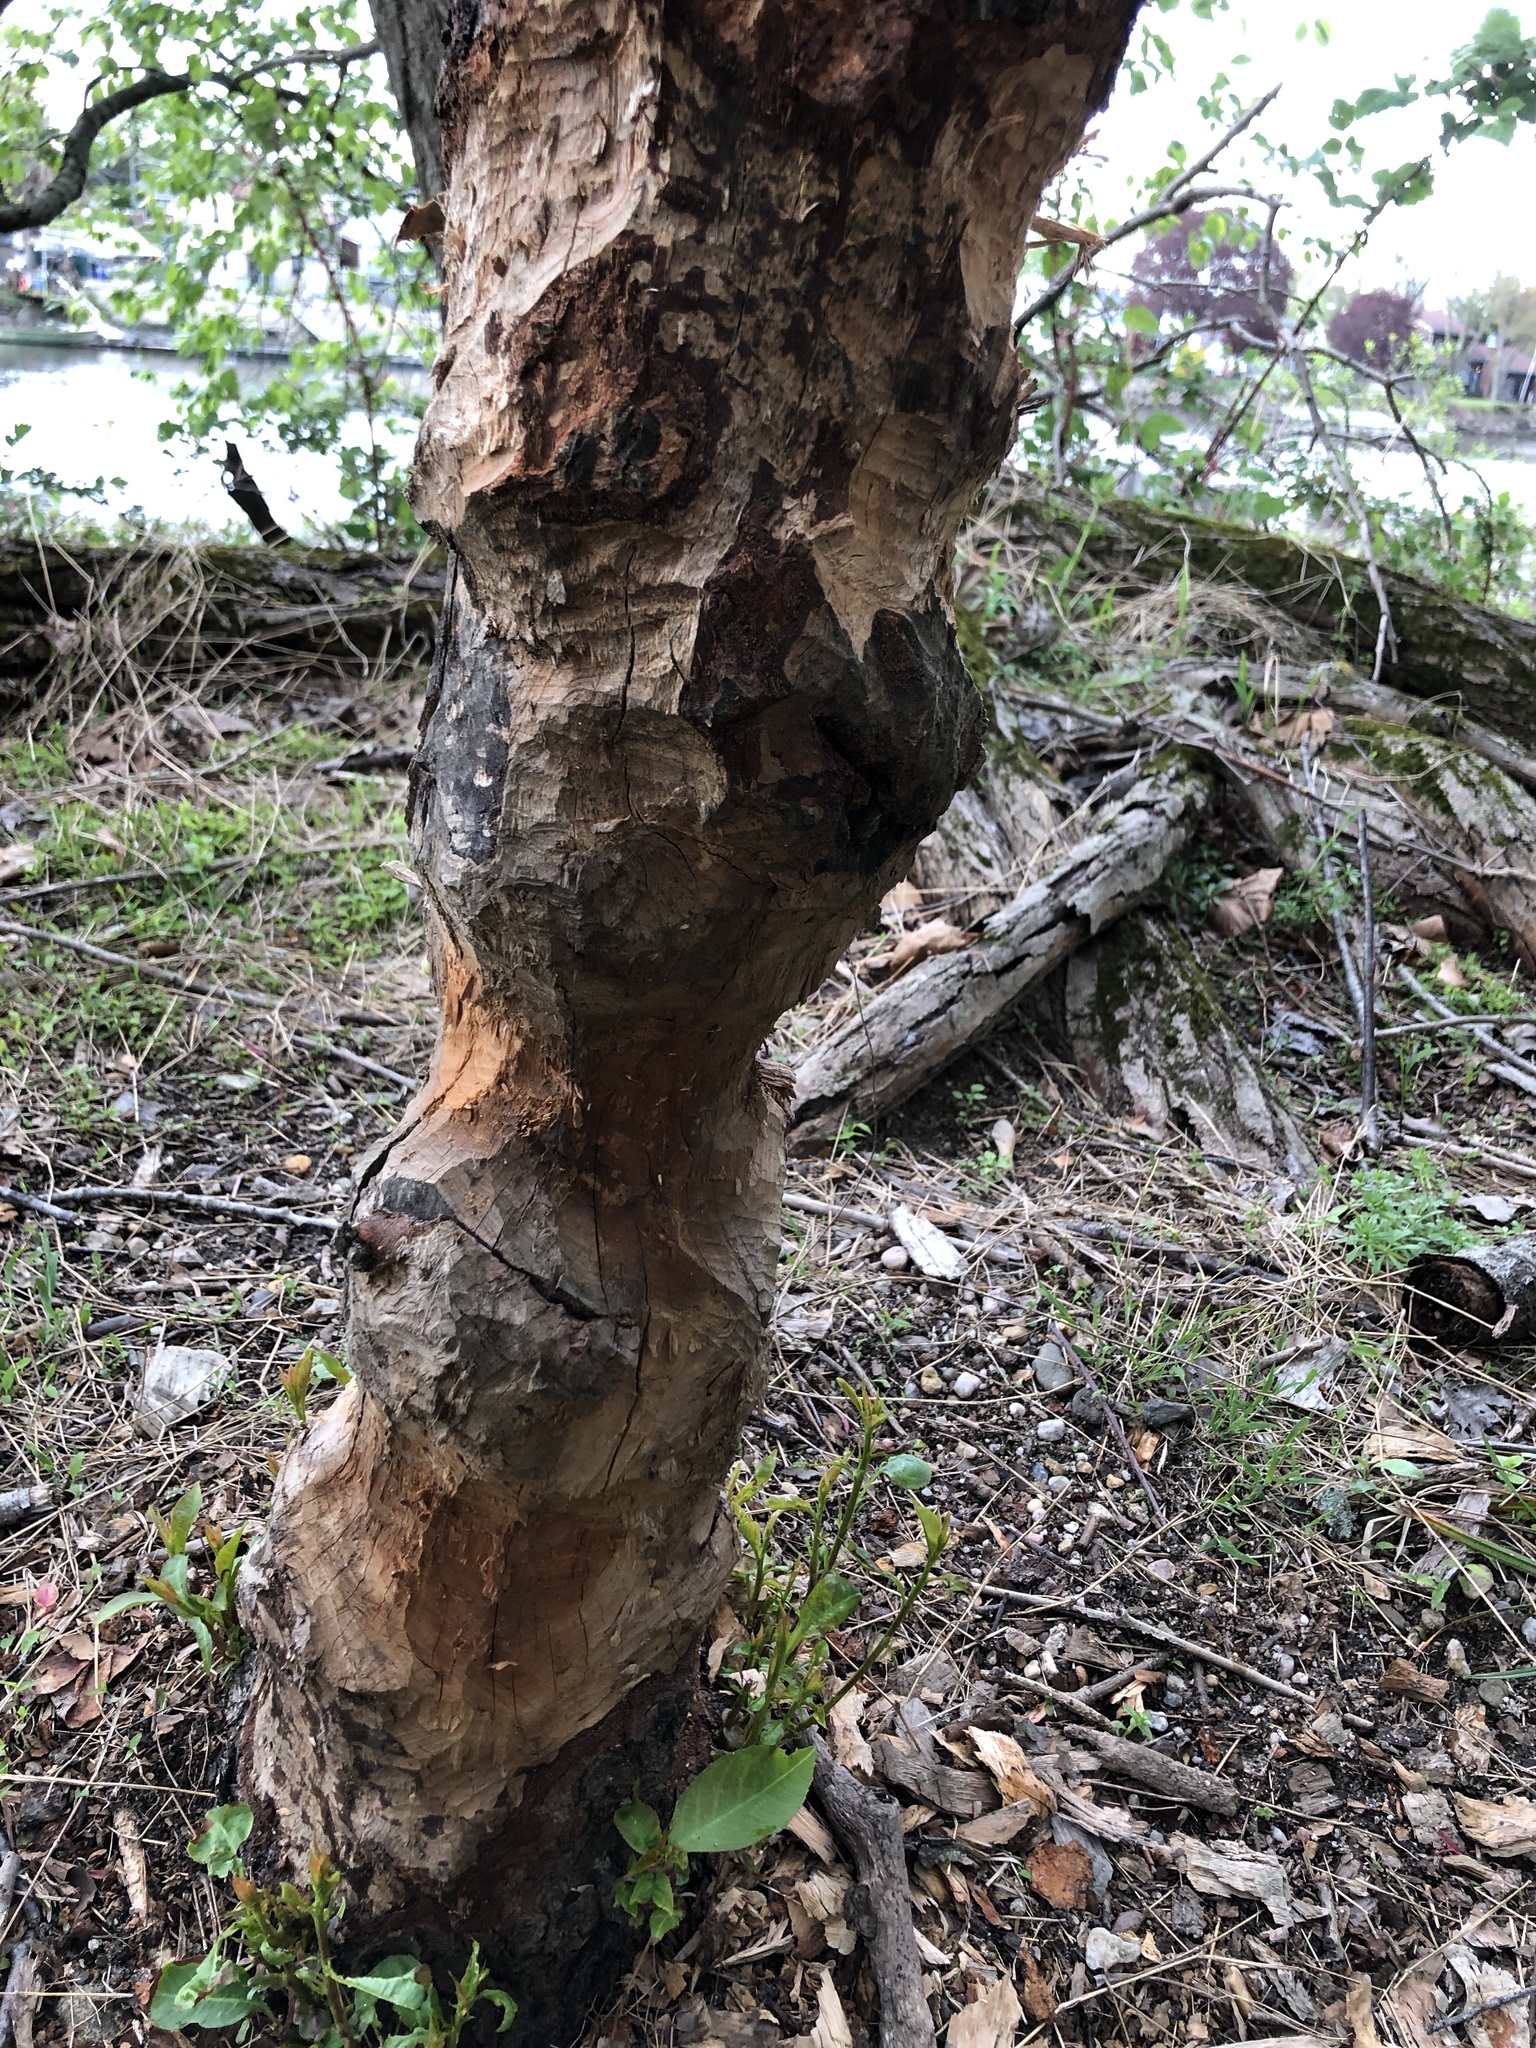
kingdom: Animalia
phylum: Chordata
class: Mammalia
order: Rodentia
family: Castoridae
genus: Castor
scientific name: Castor canadensis
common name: American beaver
